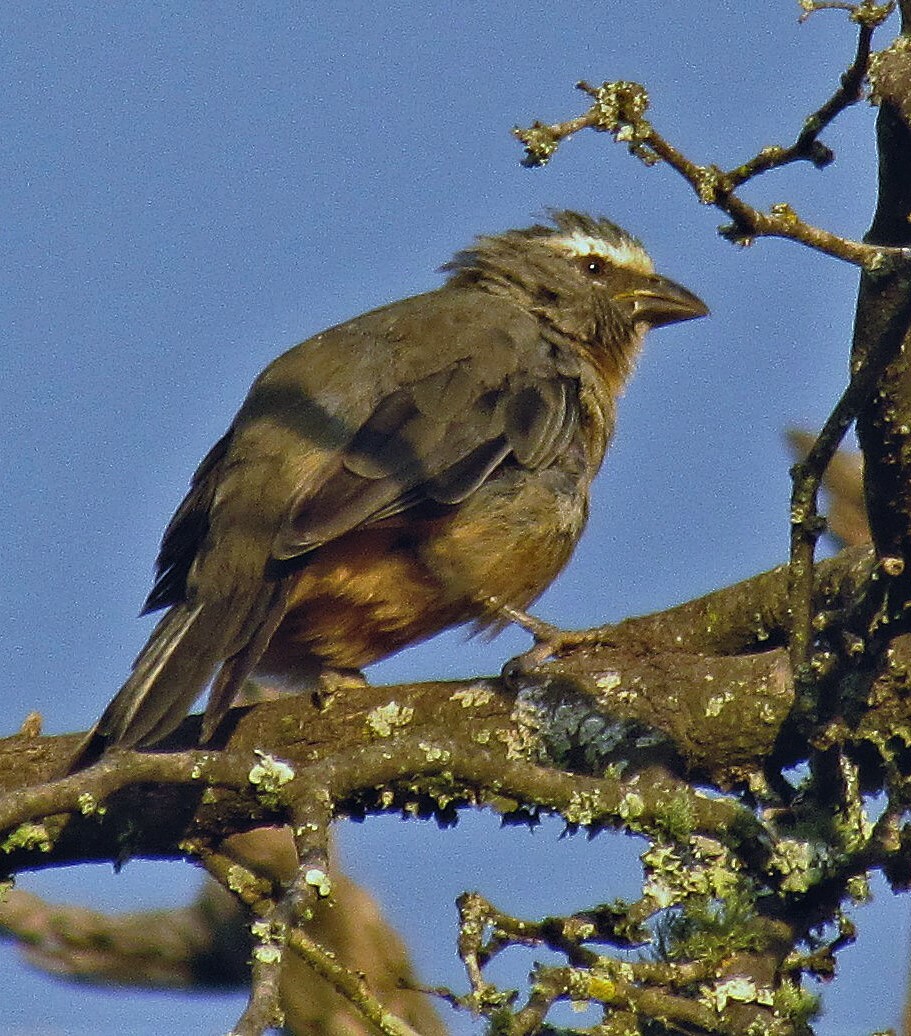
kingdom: Animalia
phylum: Chordata
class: Aves
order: Passeriformes
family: Thraupidae
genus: Saltator
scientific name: Saltator coerulescens
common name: Grayish saltator
